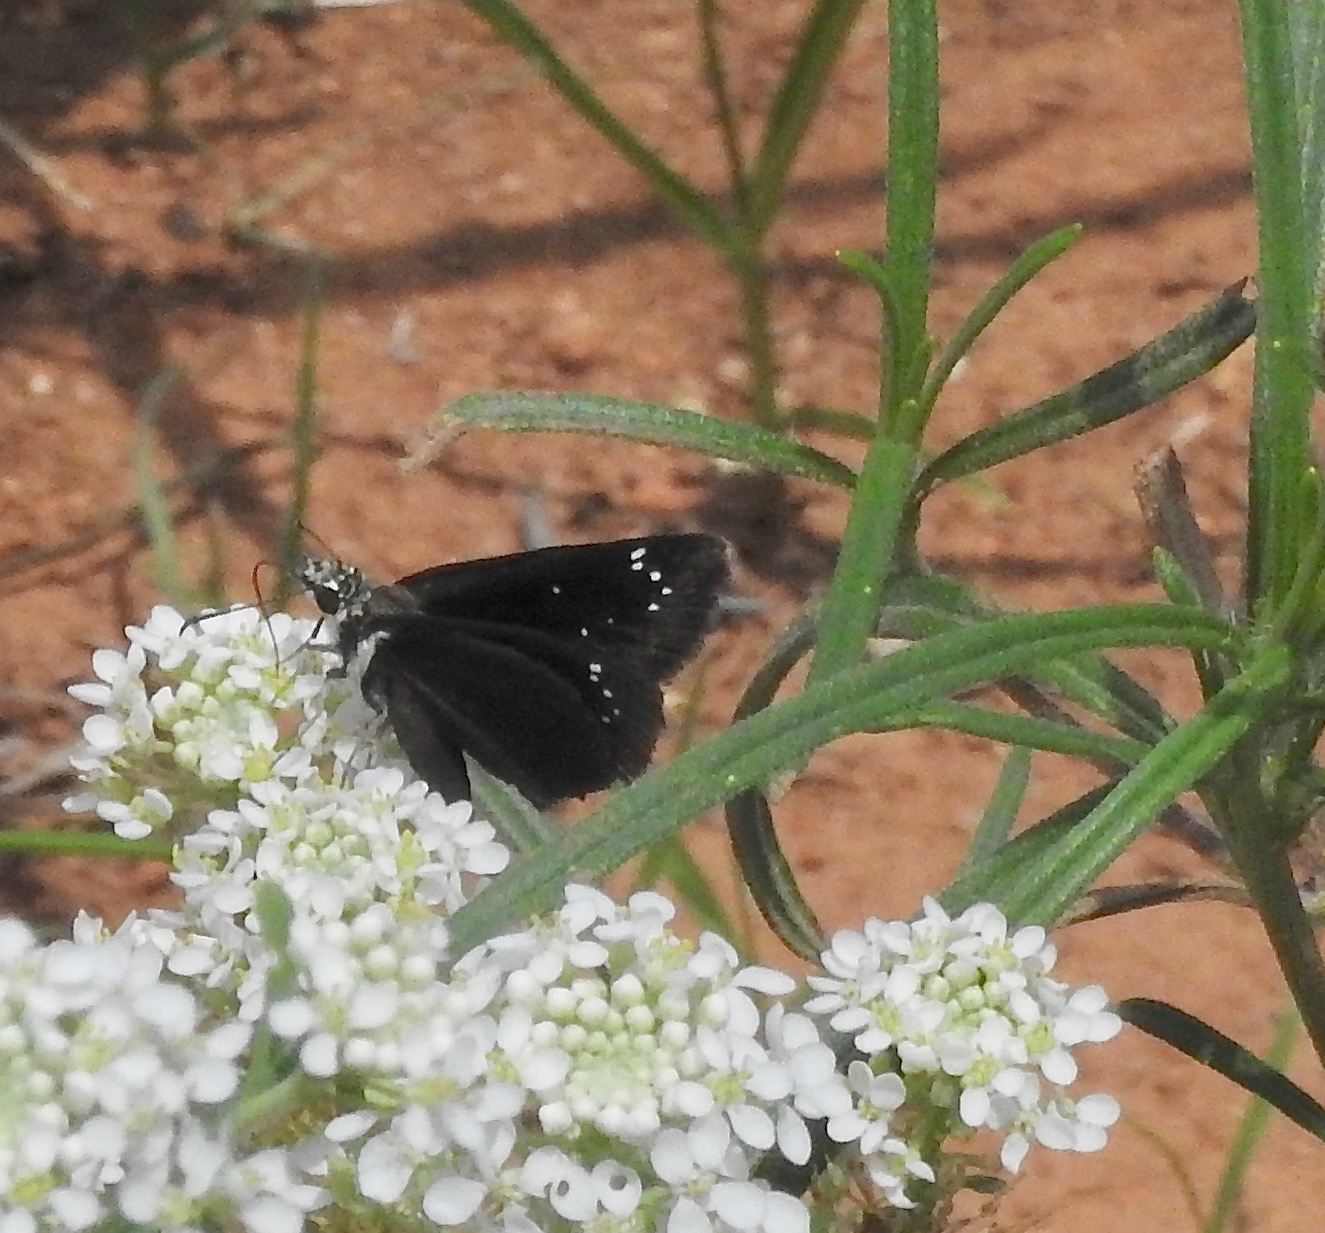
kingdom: Animalia
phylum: Arthropoda
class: Insecta
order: Lepidoptera
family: Hesperiidae
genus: Pholisora
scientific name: Pholisora catullus
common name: Common sootywing
